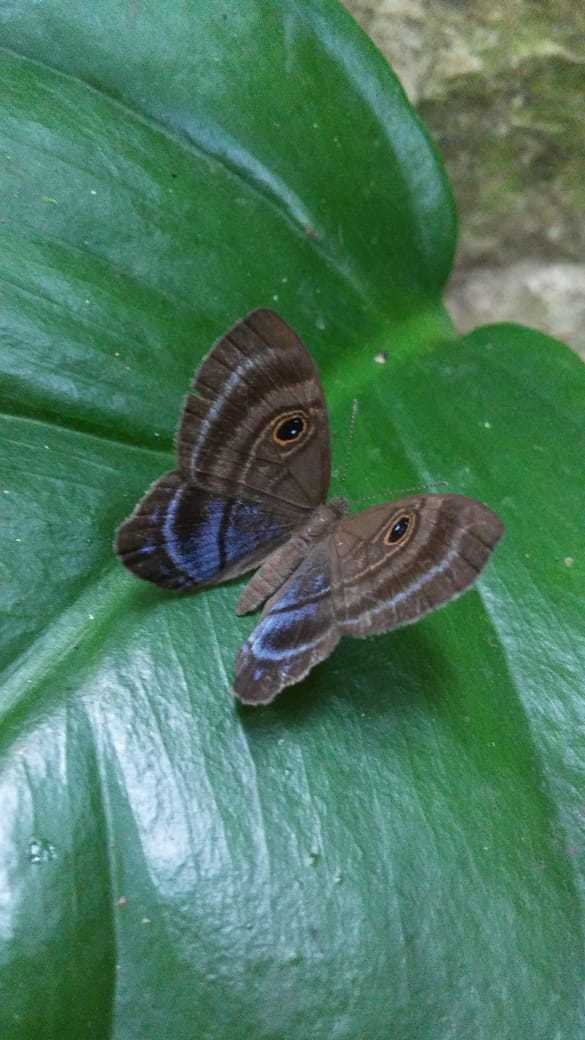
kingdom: Animalia
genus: Mesosemia
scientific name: Mesosemia lamachus
